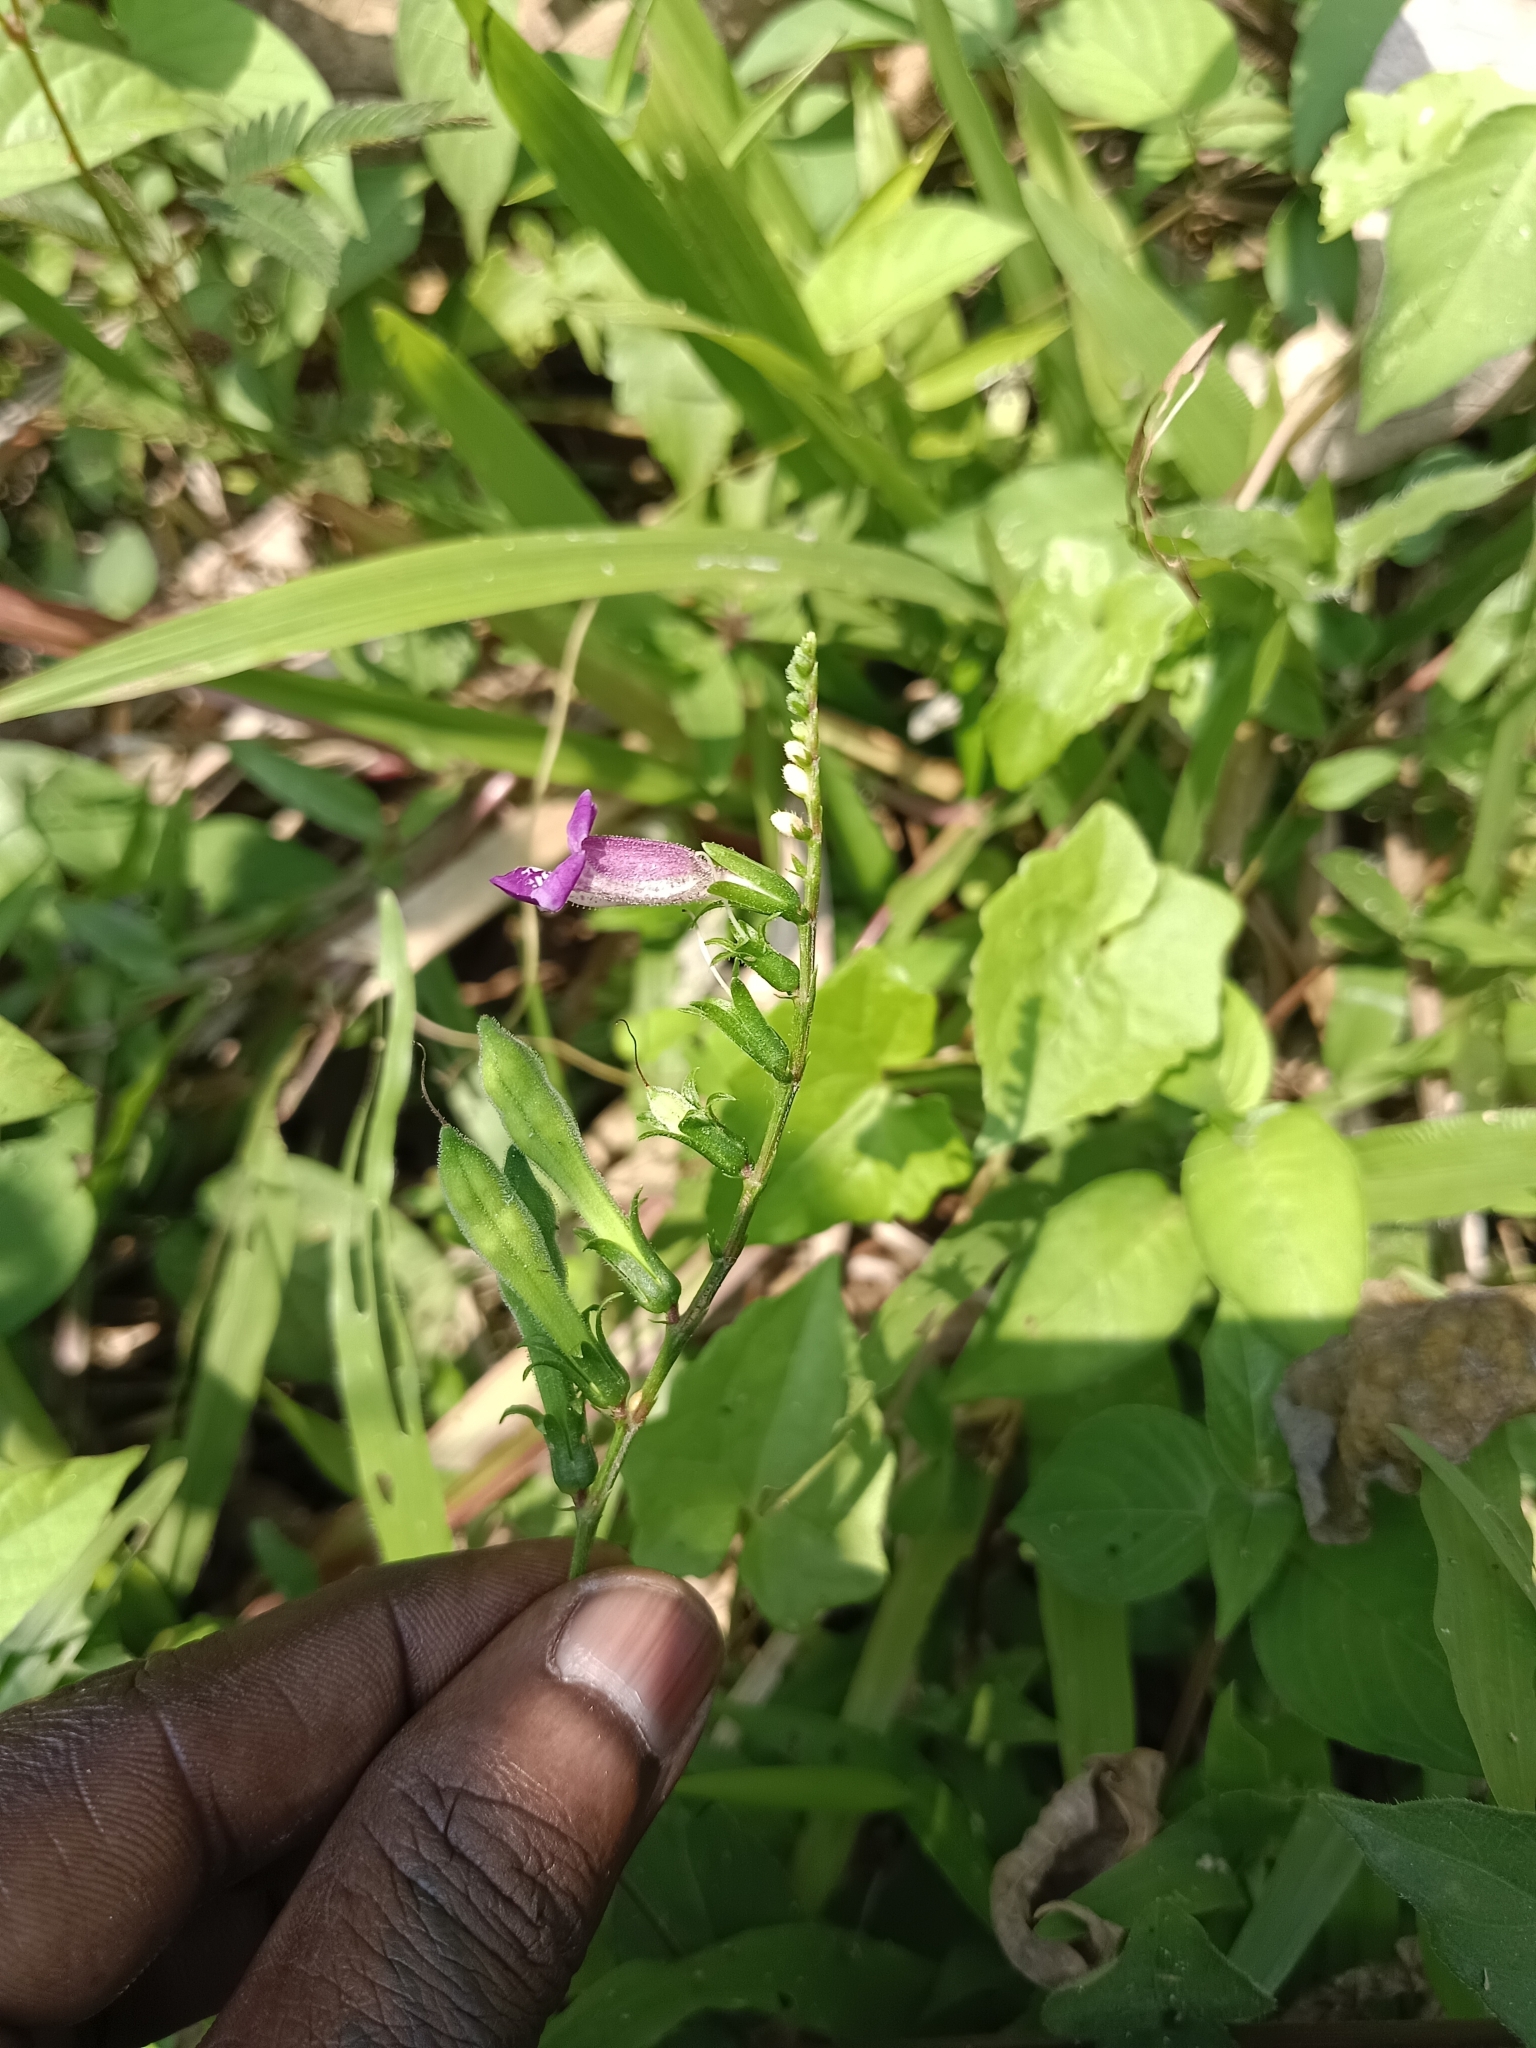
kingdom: Plantae
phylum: Tracheophyta
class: Magnoliopsida
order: Lamiales
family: Acanthaceae
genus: Asystasia
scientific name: Asystasia dalzelliana
